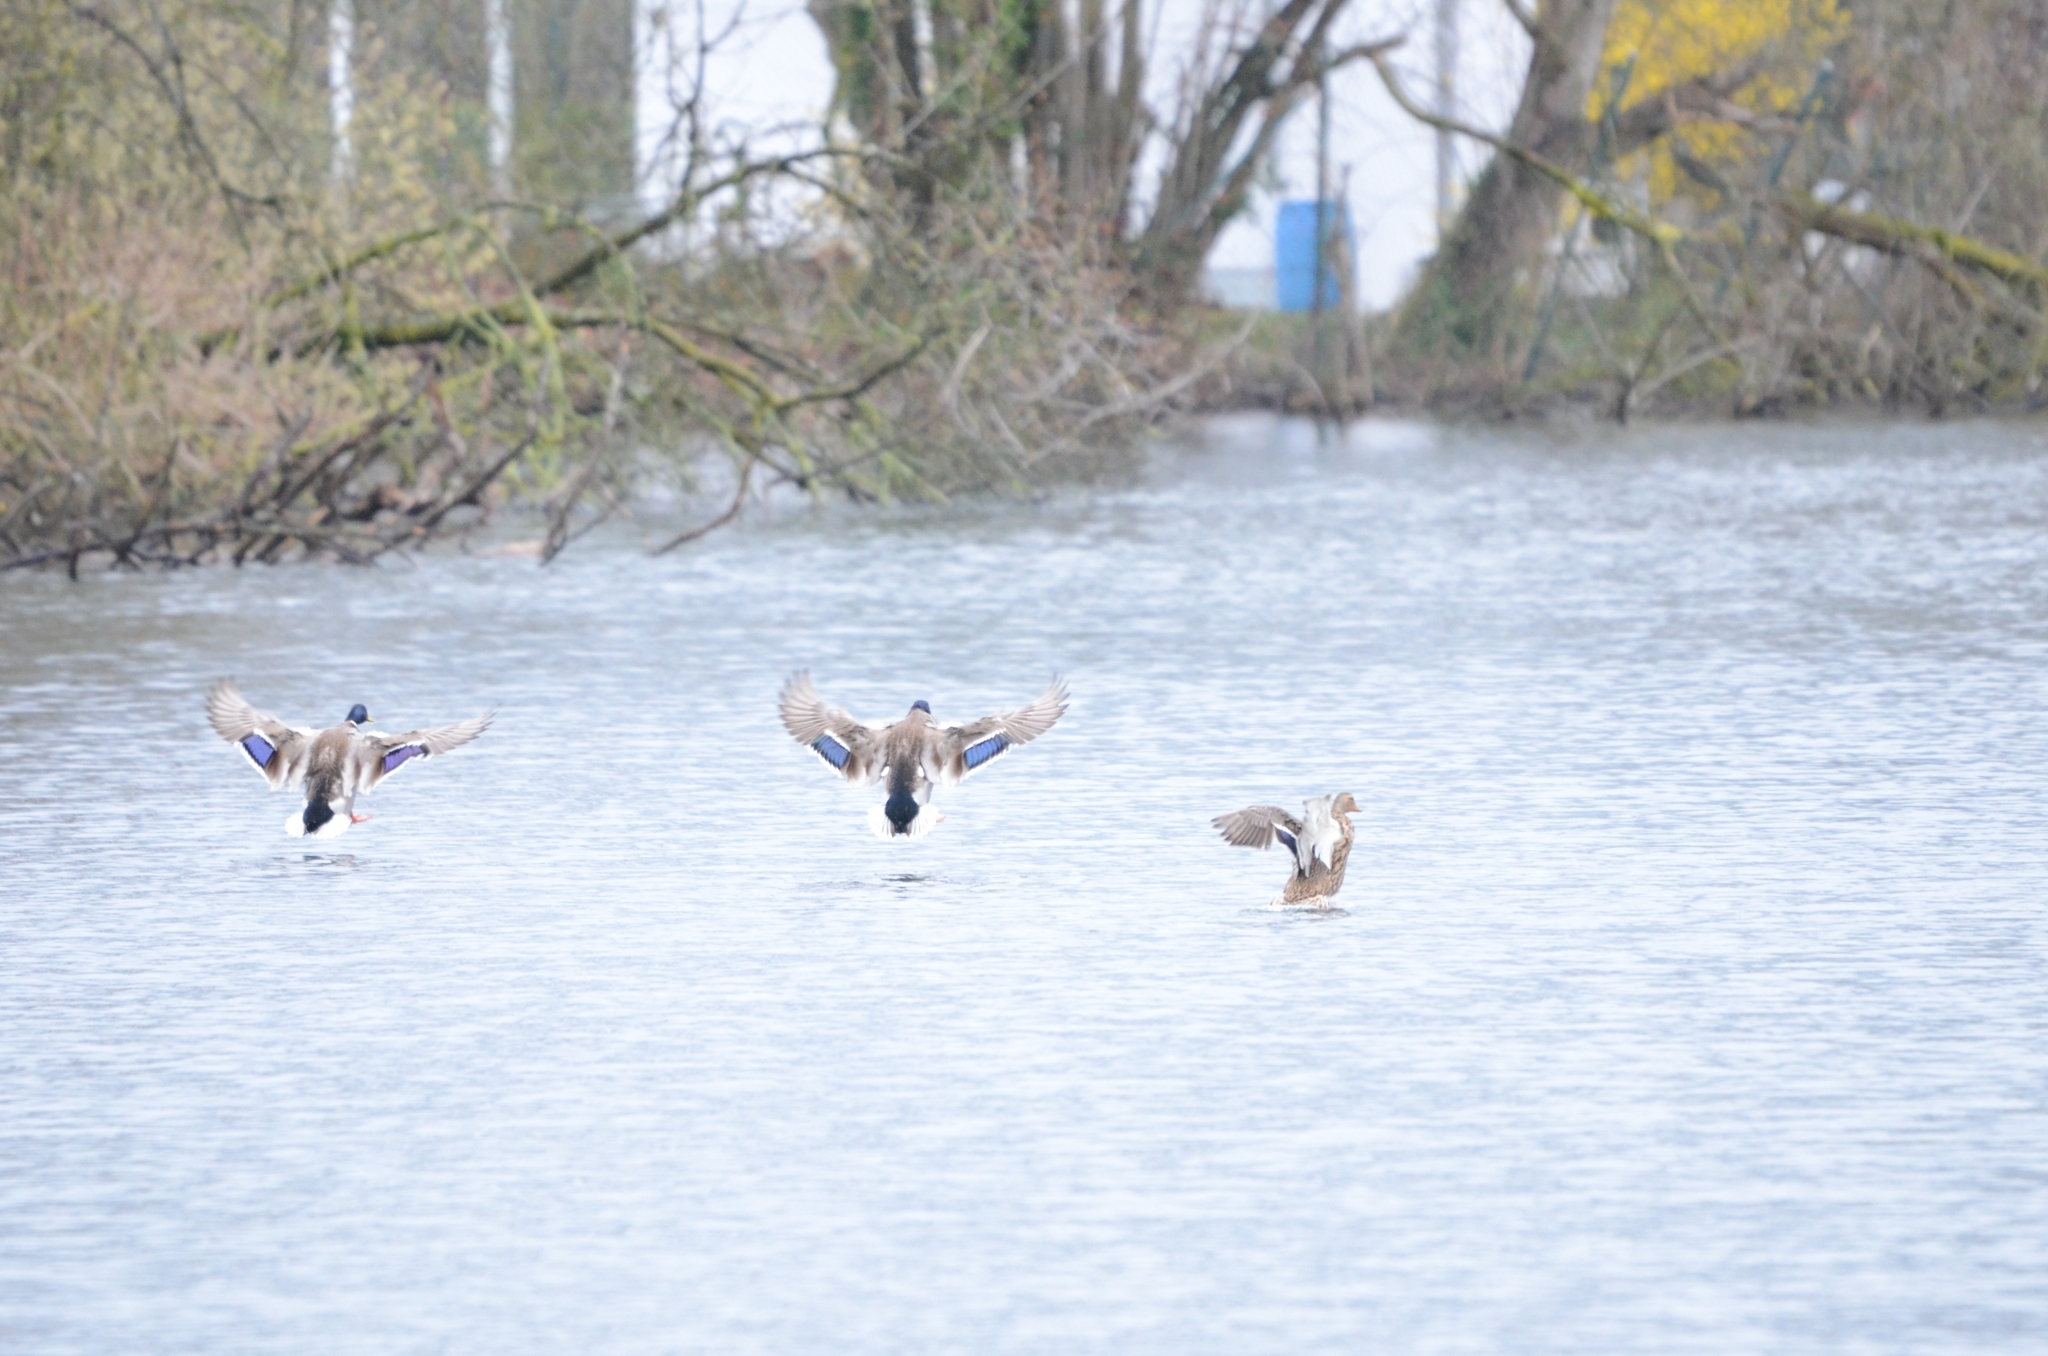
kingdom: Animalia
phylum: Chordata
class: Aves
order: Anseriformes
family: Anatidae
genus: Anas
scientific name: Anas platyrhynchos
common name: Mallard
